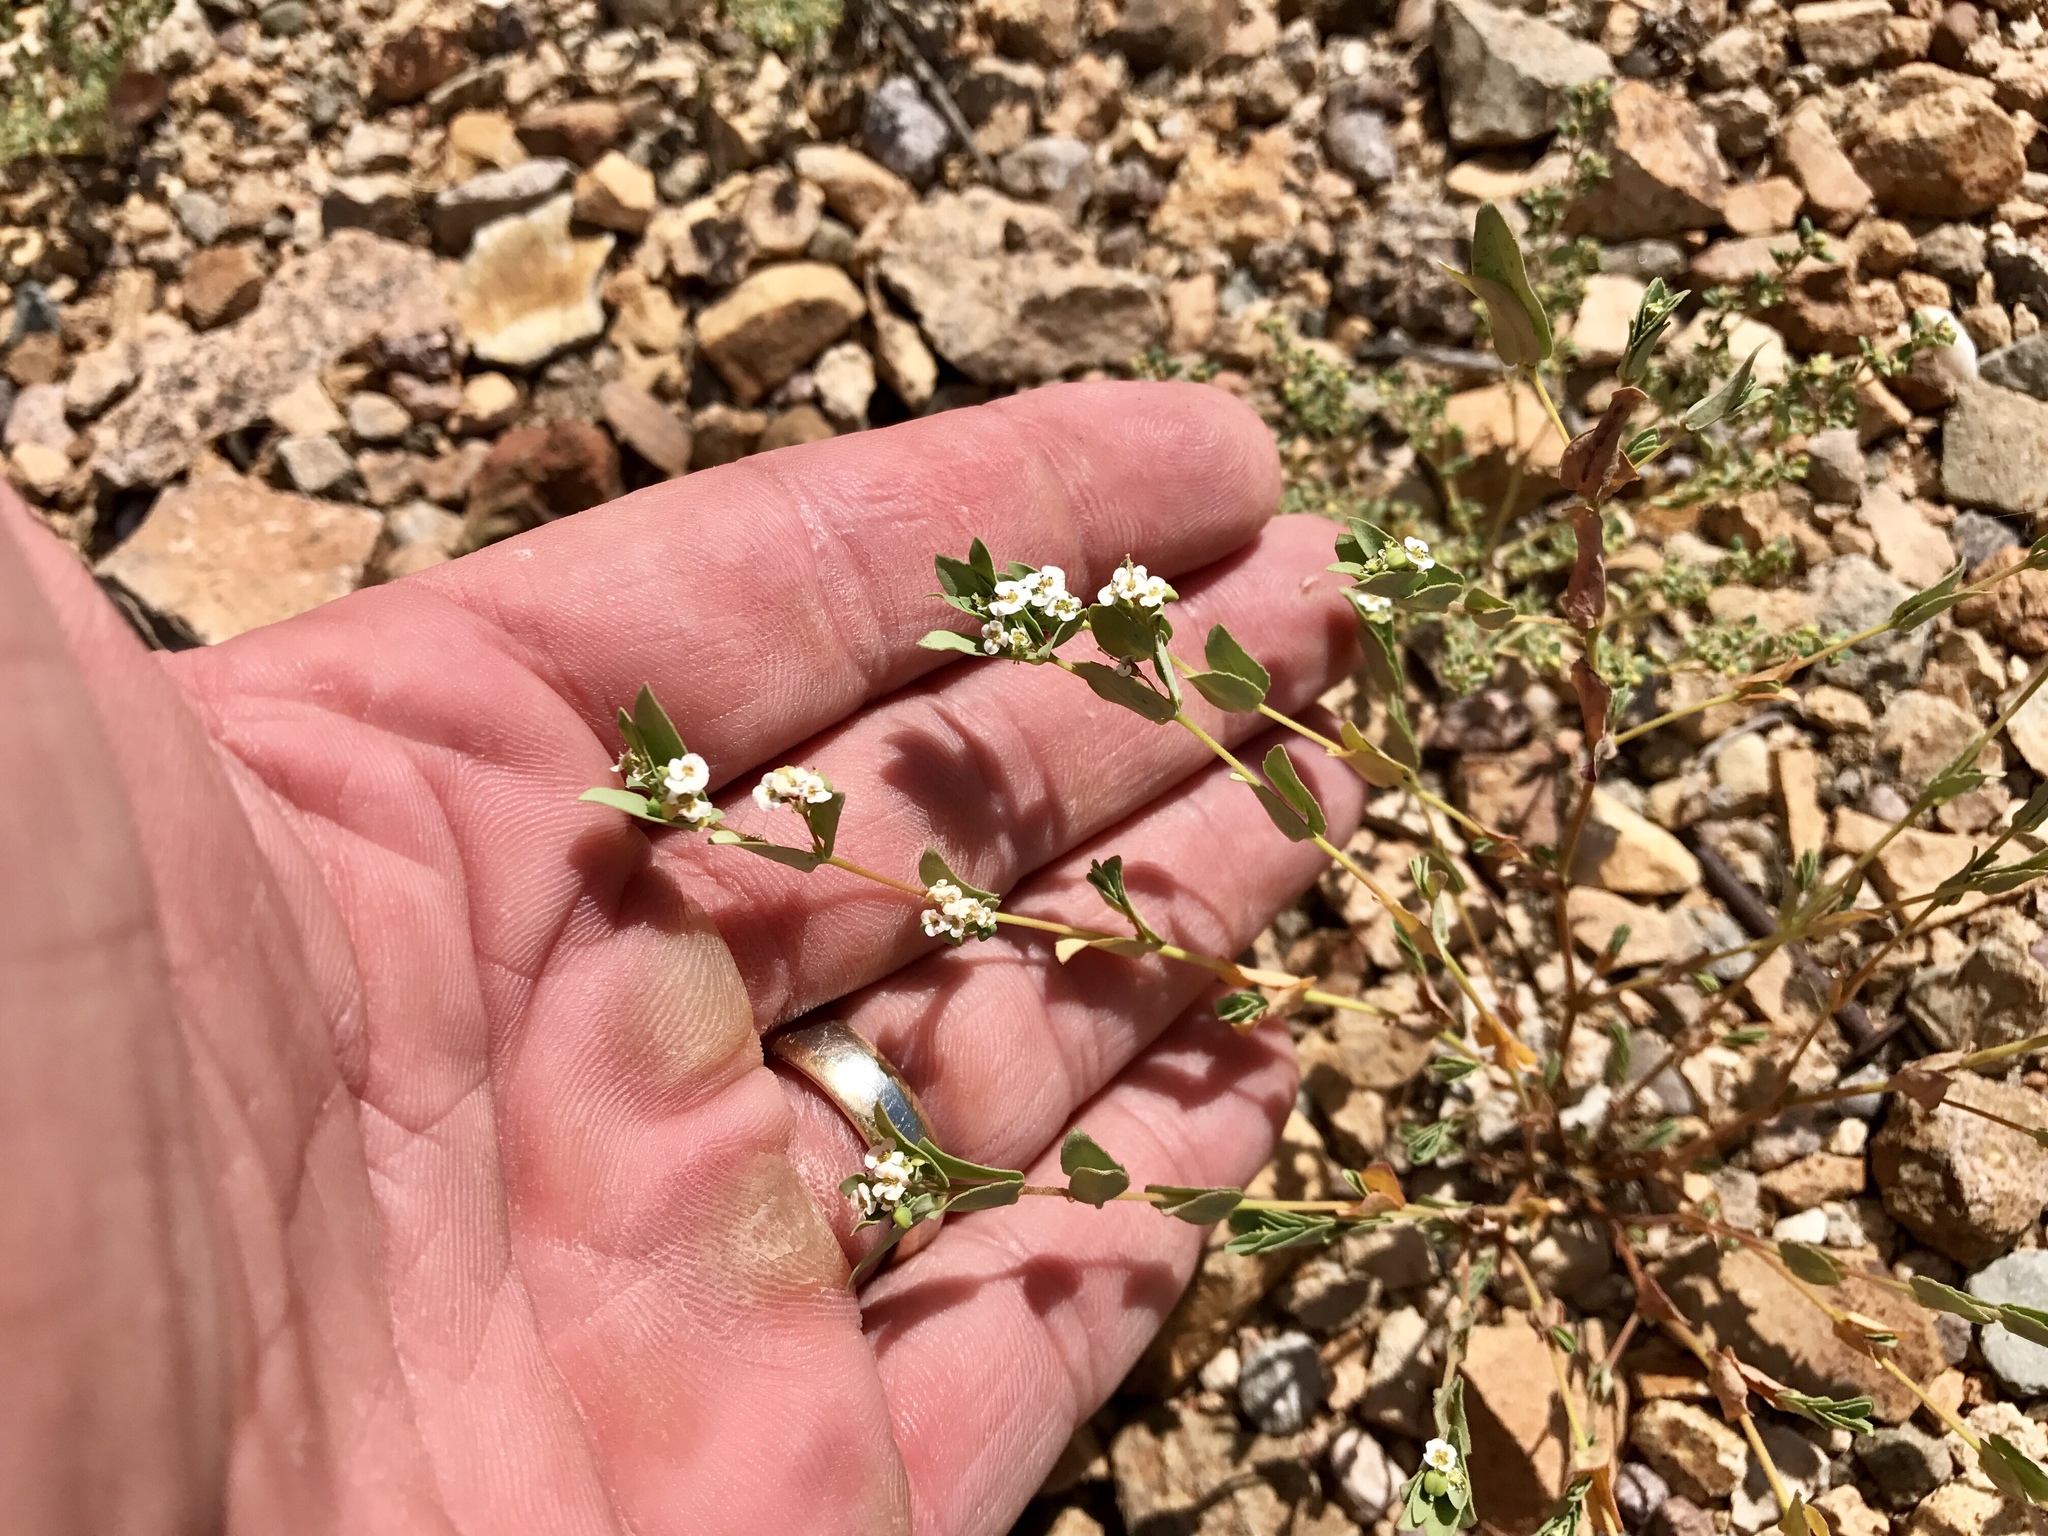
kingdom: Plantae
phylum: Tracheophyta
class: Magnoliopsida
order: Malpighiales
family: Euphorbiaceae
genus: Euphorbia
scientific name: Euphorbia capitellata
